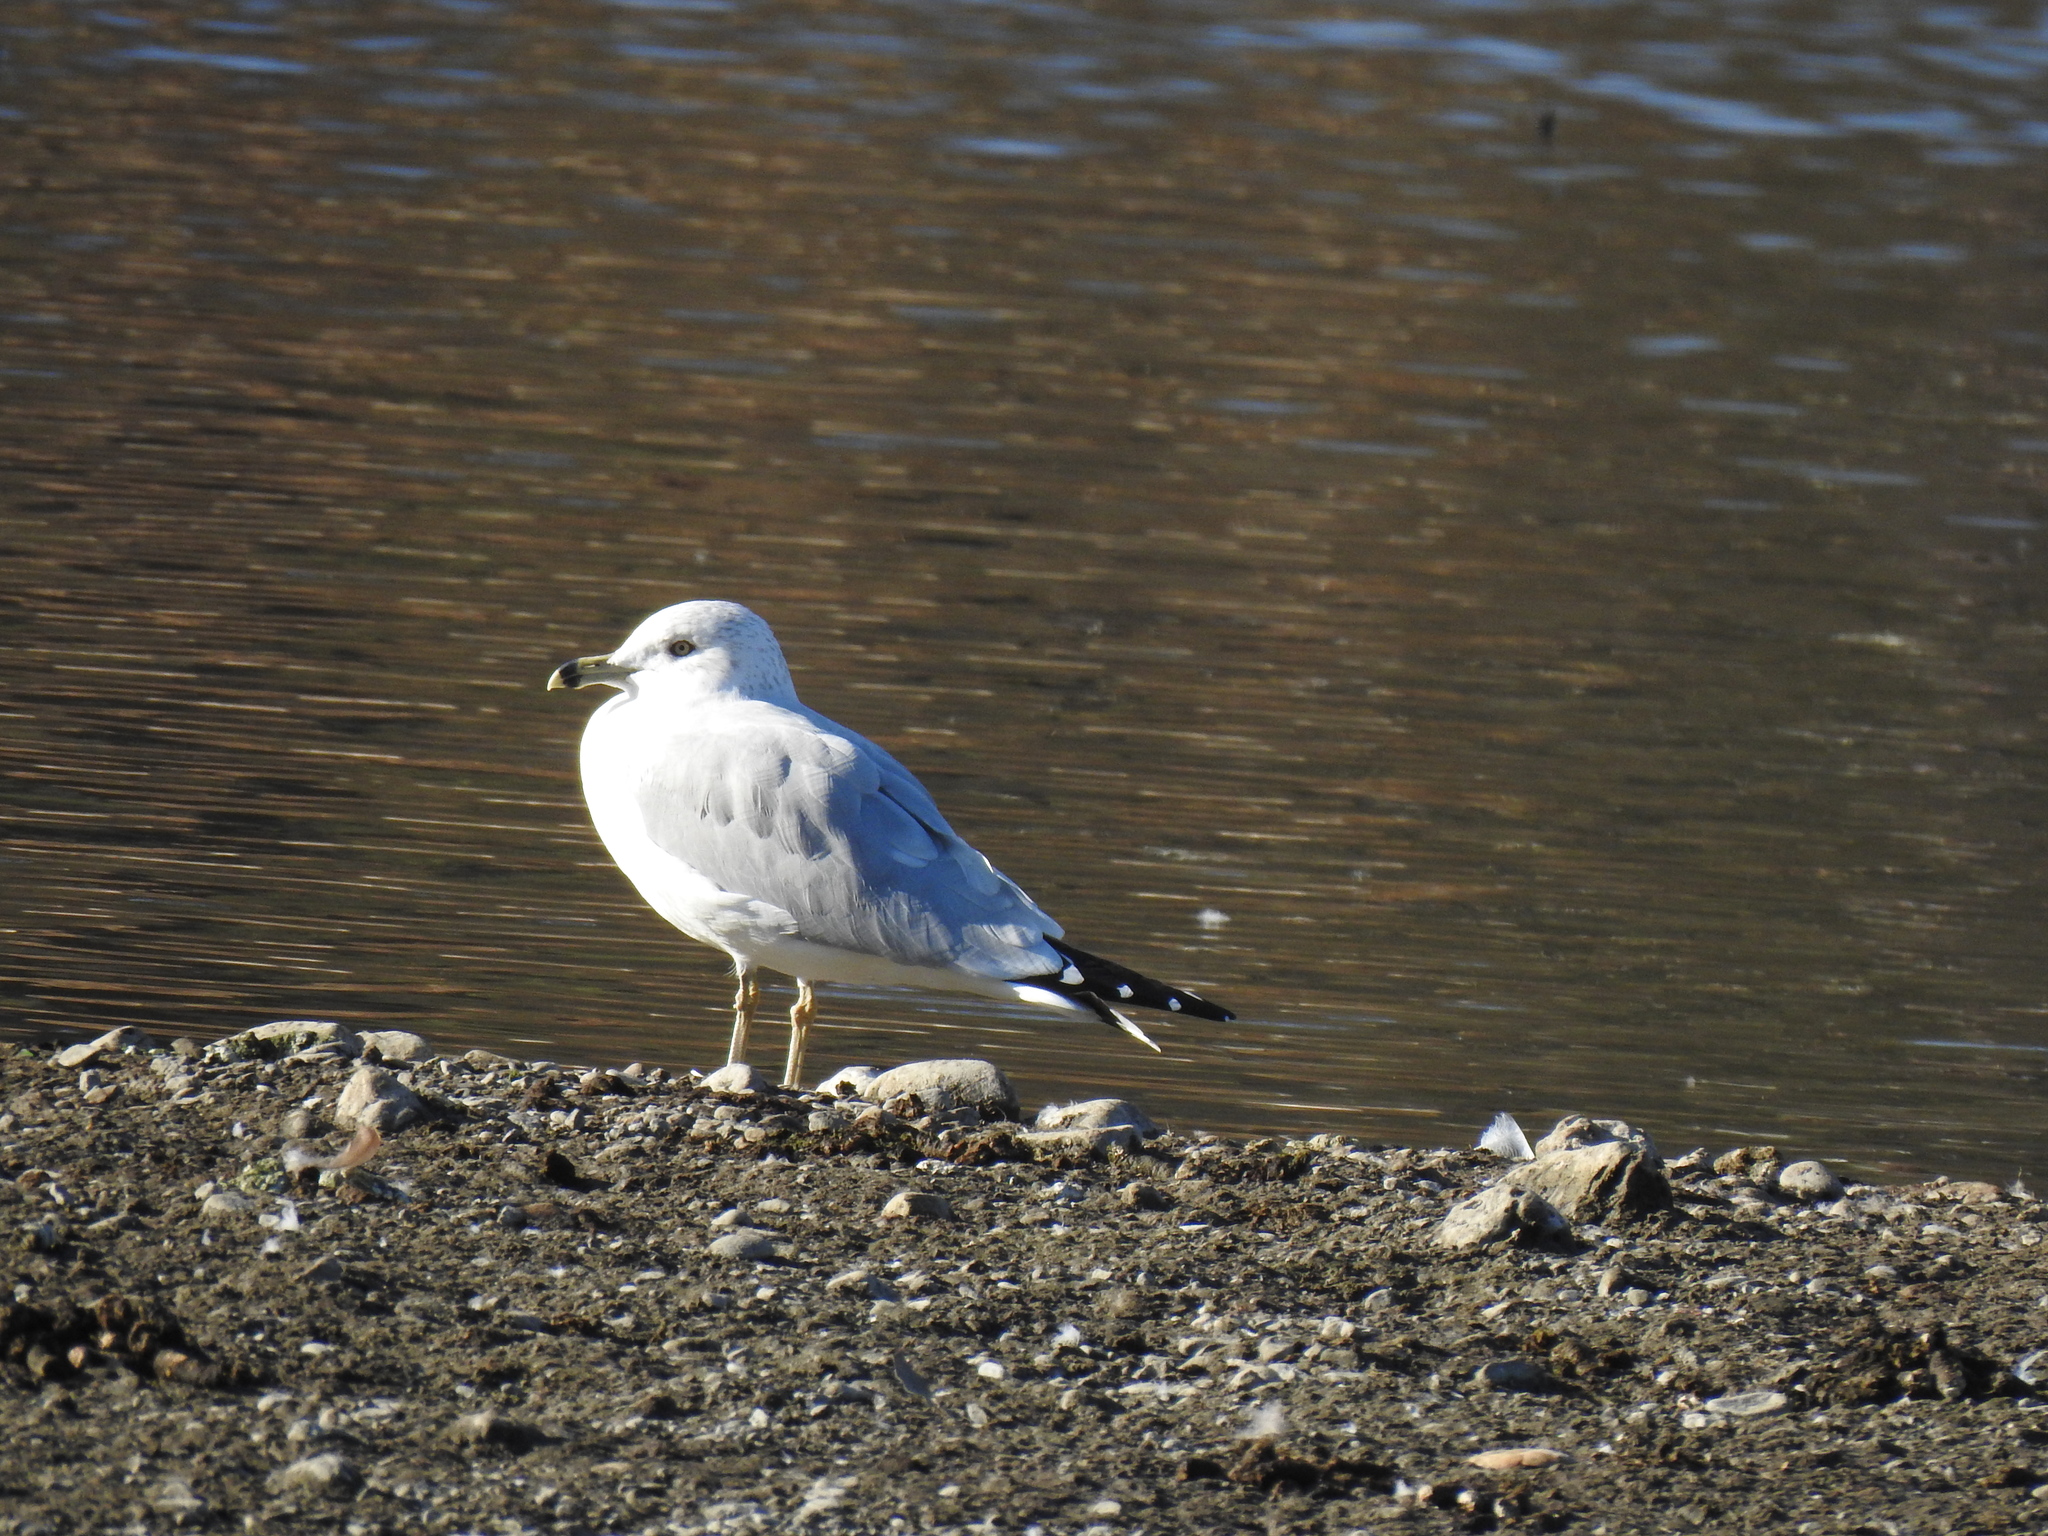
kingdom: Animalia
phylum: Chordata
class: Aves
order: Charadriiformes
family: Laridae
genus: Larus
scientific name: Larus delawarensis
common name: Ring-billed gull
